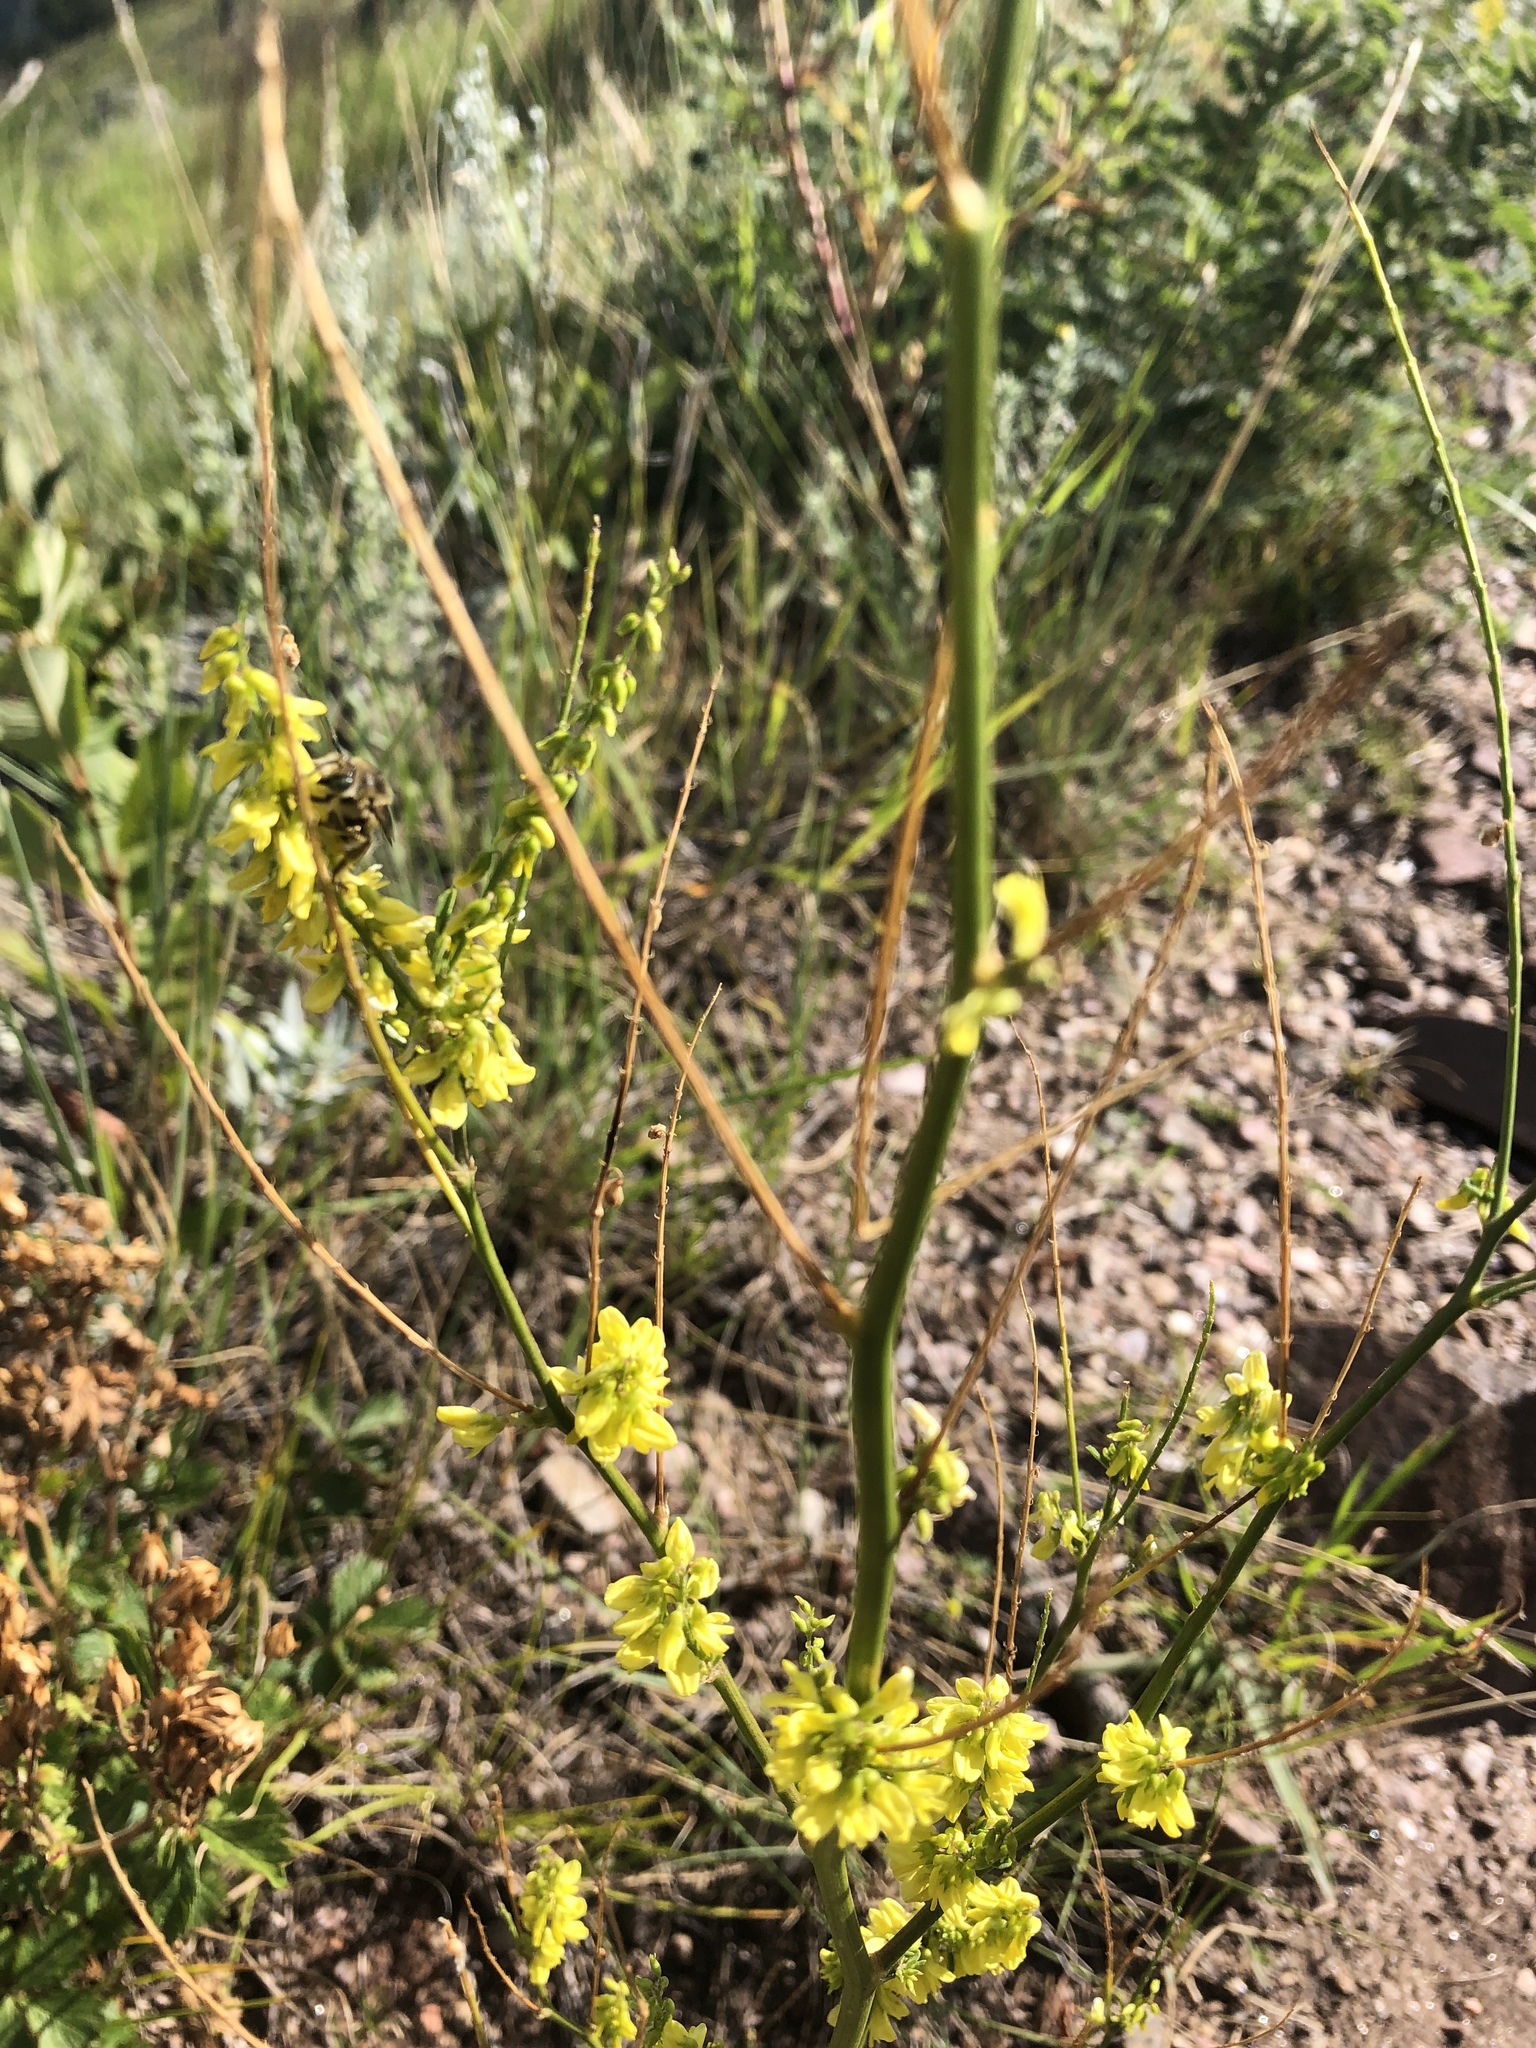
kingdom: Plantae
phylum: Tracheophyta
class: Magnoliopsida
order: Fabales
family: Fabaceae
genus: Melilotus
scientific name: Melilotus officinalis
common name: Sweetclover
